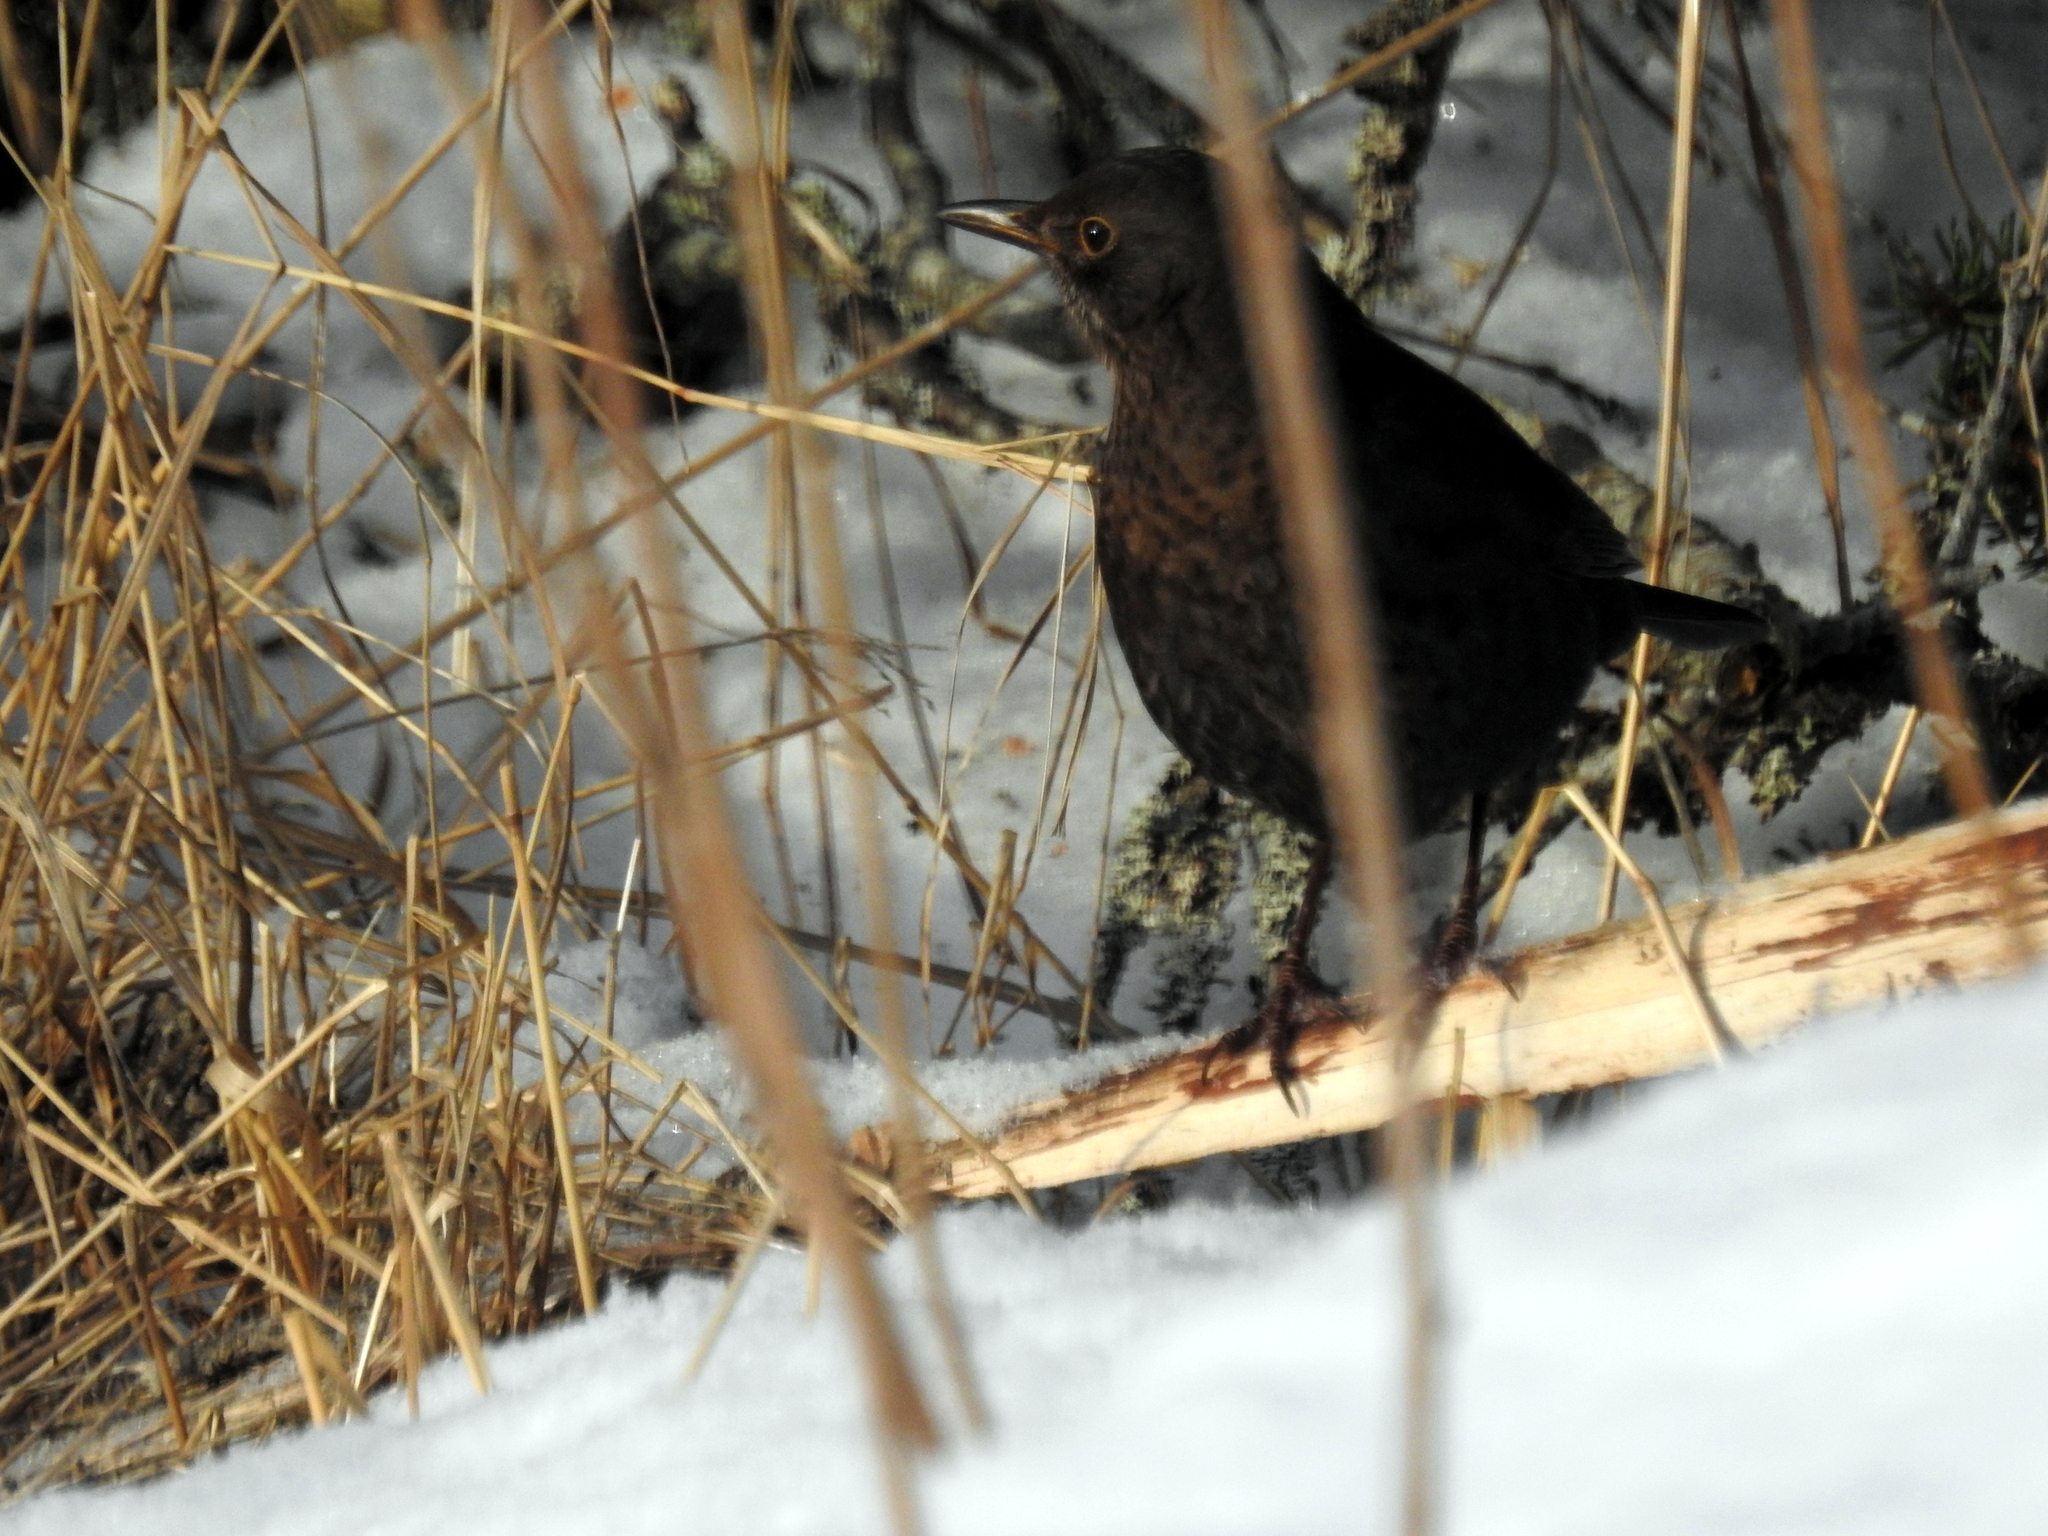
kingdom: Animalia
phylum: Chordata
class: Aves
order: Passeriformes
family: Turdidae
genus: Turdus
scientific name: Turdus merula
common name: Common blackbird
